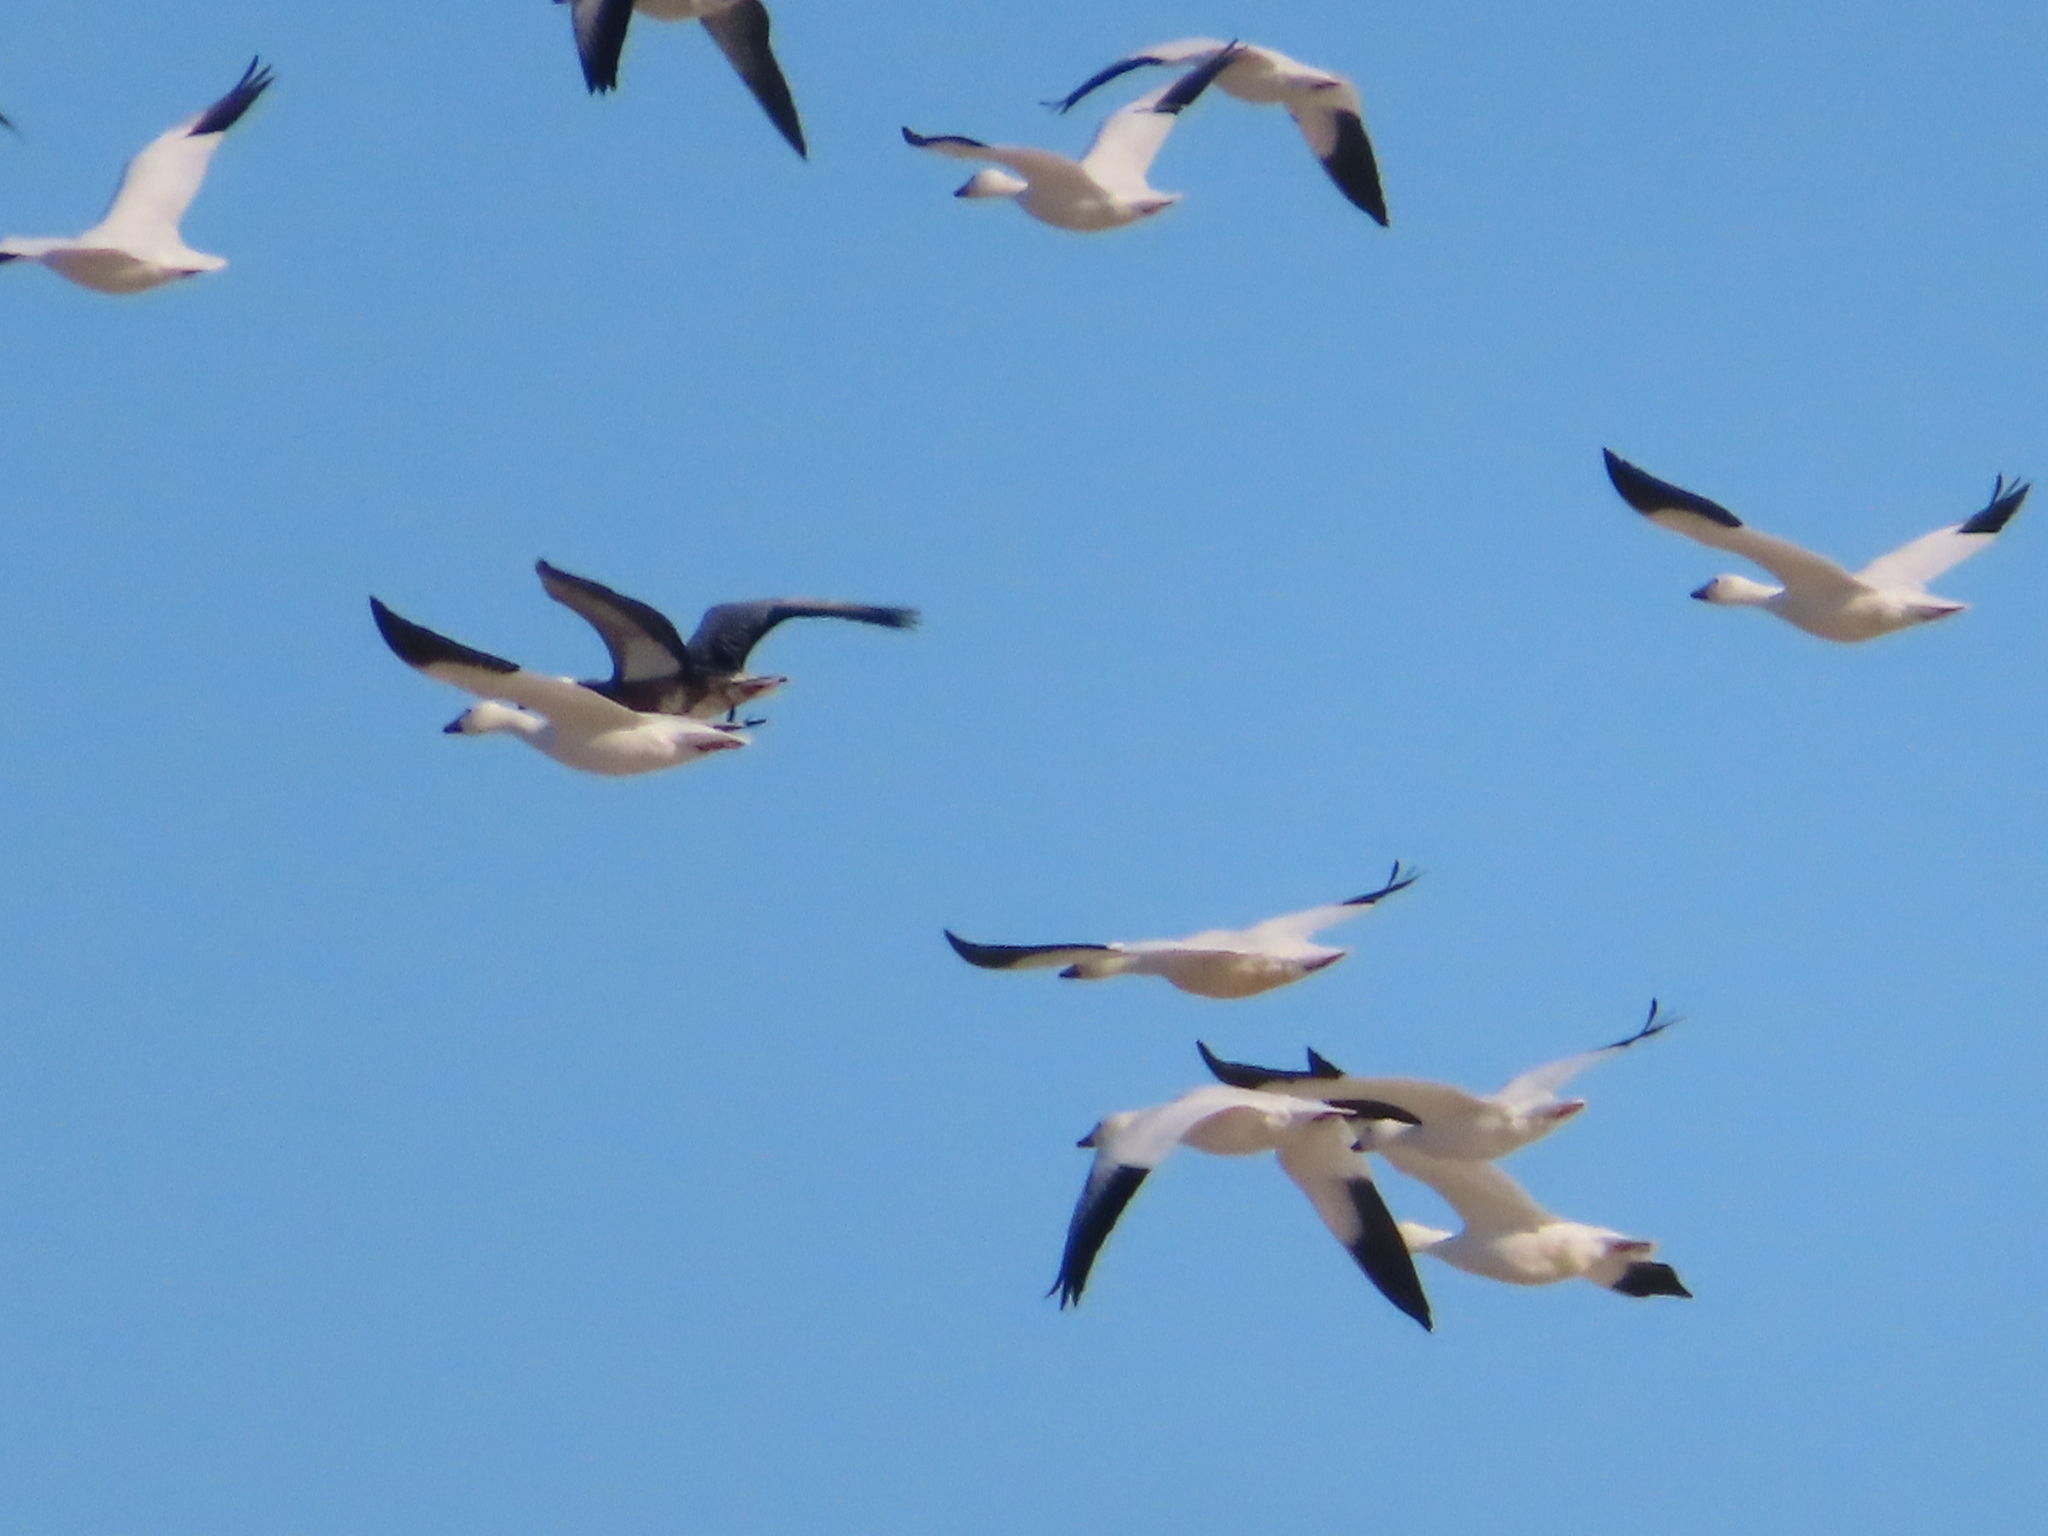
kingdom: Animalia
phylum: Chordata
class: Aves
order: Anseriformes
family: Anatidae
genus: Anser
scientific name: Anser caerulescens
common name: Snow goose
